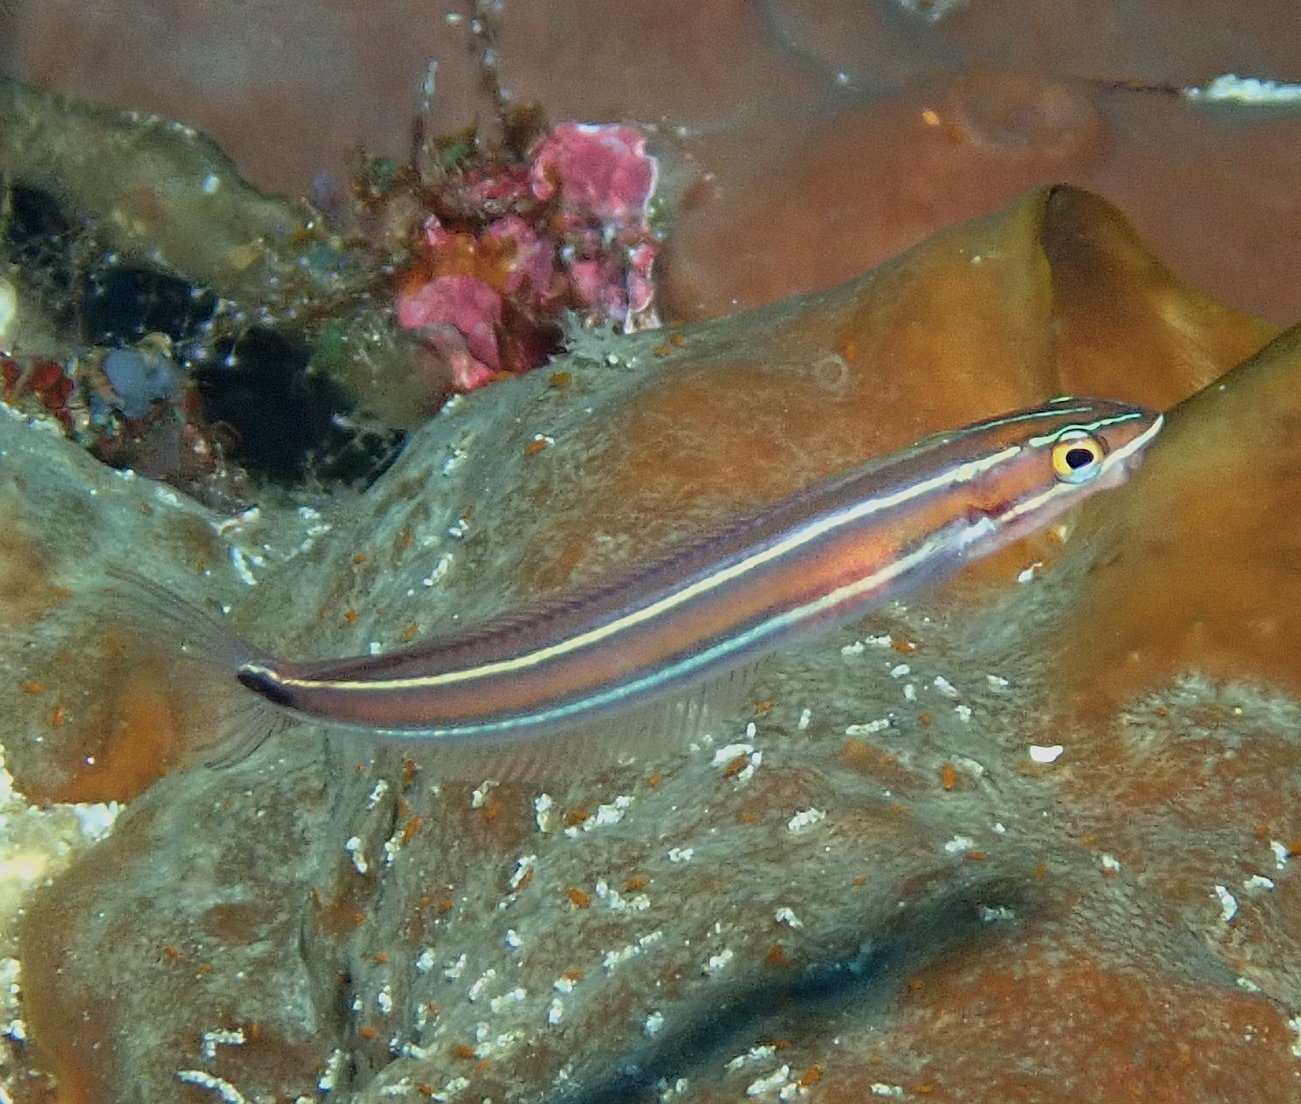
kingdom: Animalia
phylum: Chordata
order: Perciformes
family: Blenniidae
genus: Plagiotremus
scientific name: Plagiotremus rhinorhynchos
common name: Bluestriped fangblenny
